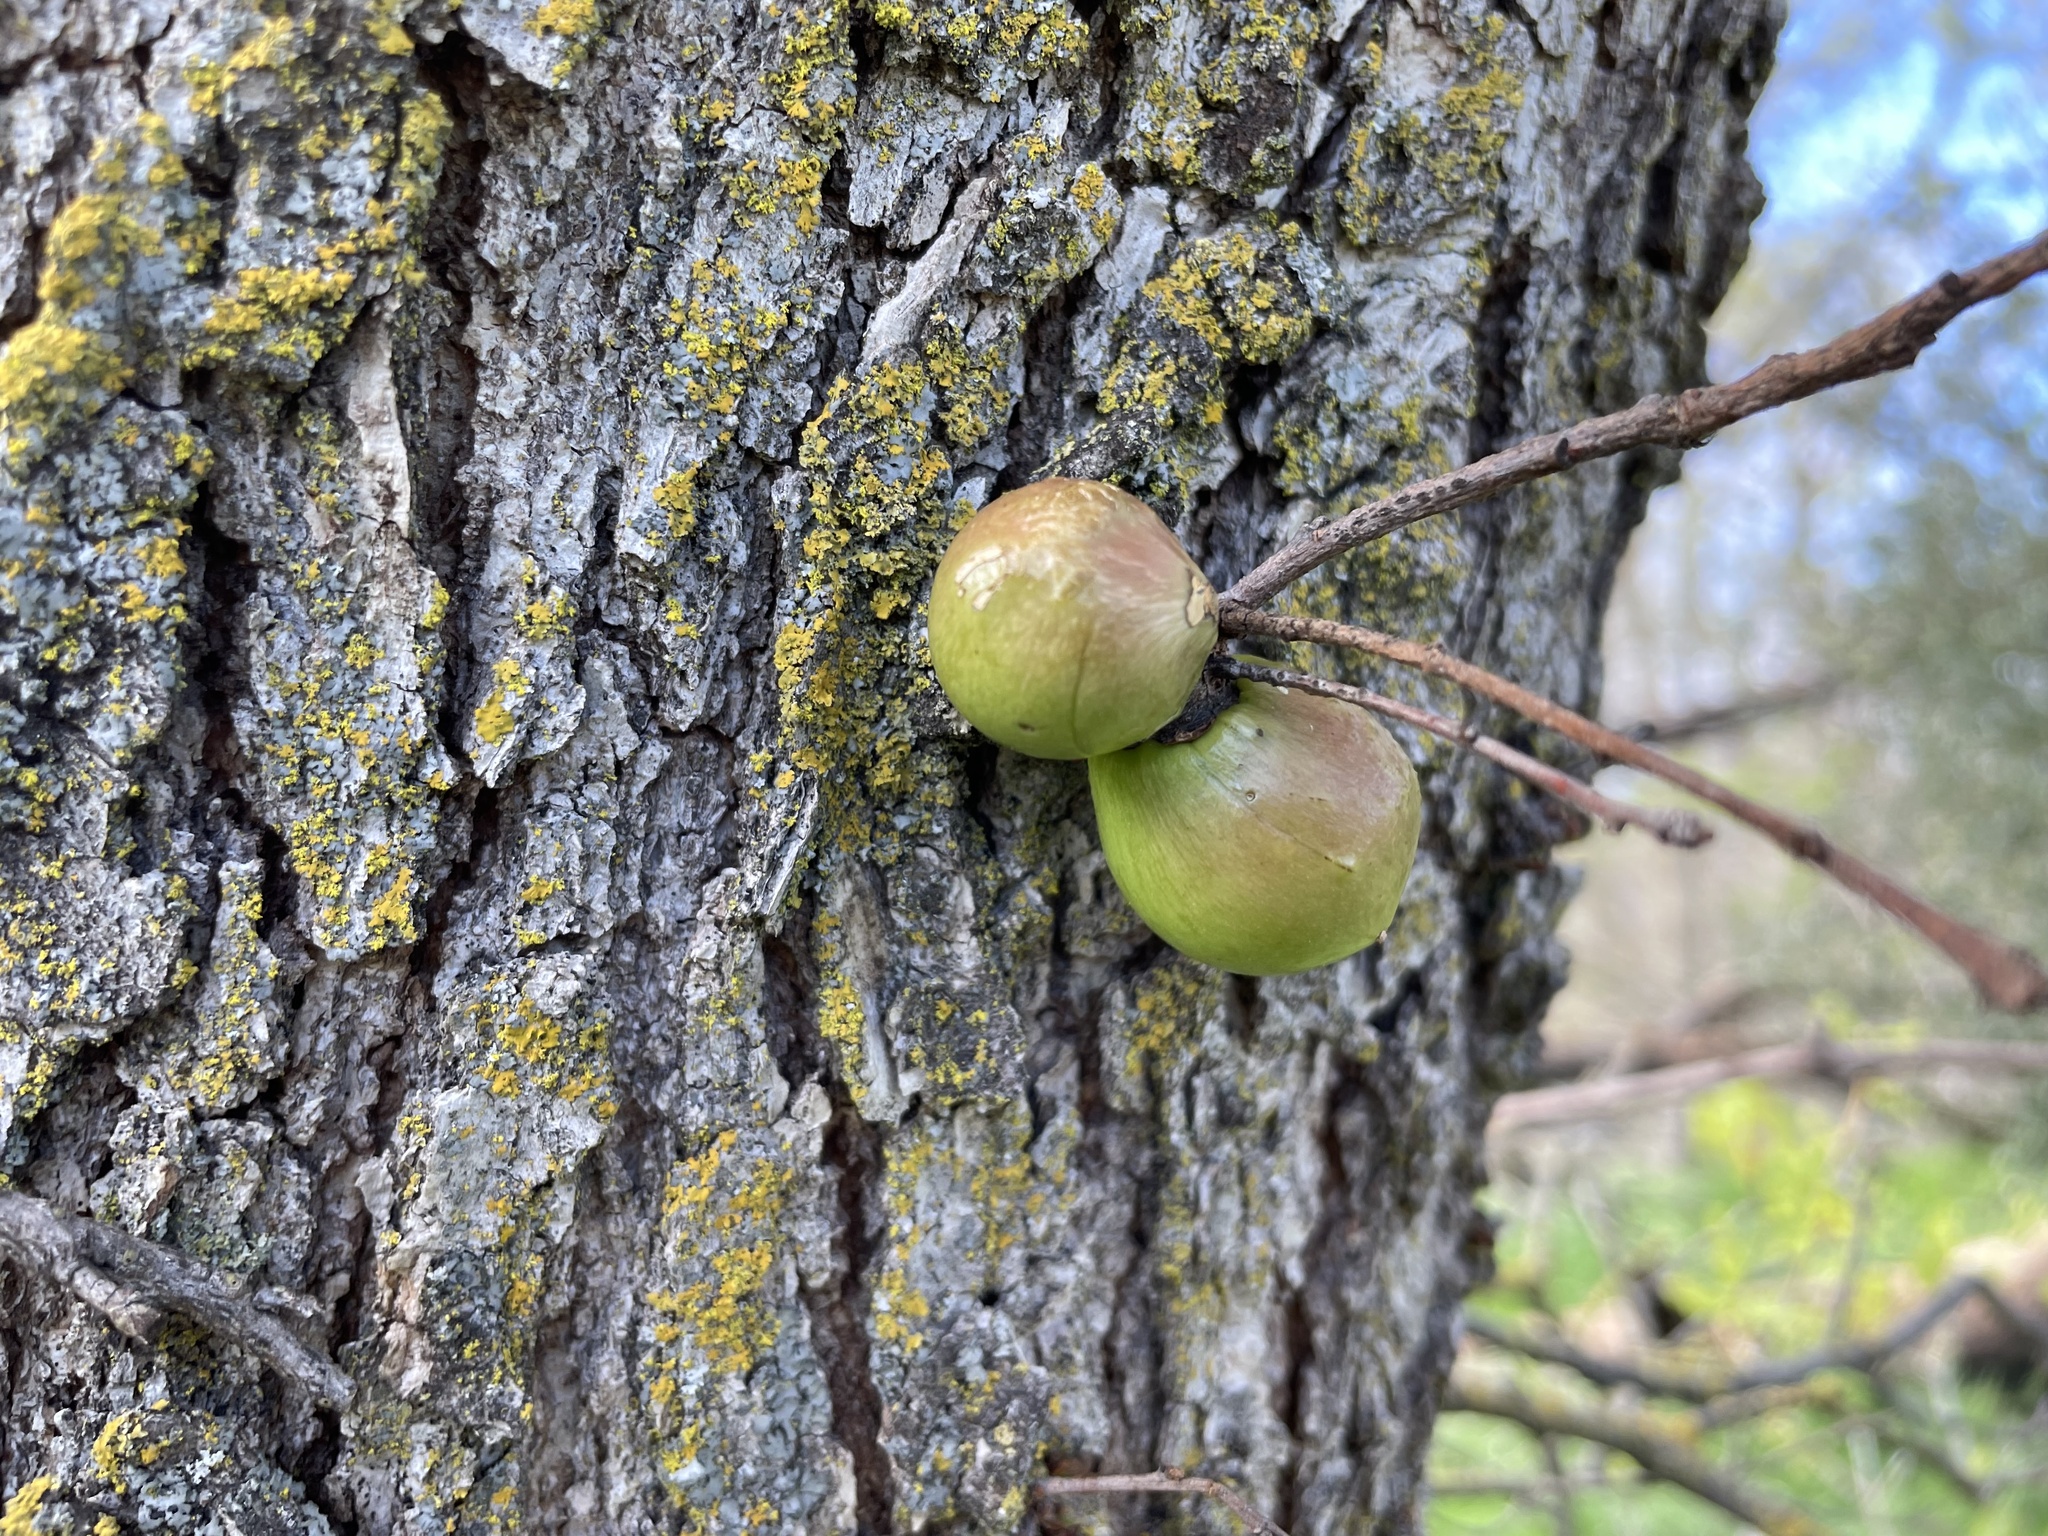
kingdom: Animalia
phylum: Arthropoda
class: Insecta
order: Hymenoptera
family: Cynipidae
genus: Andricus
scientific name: Andricus quercuscalifornicus
